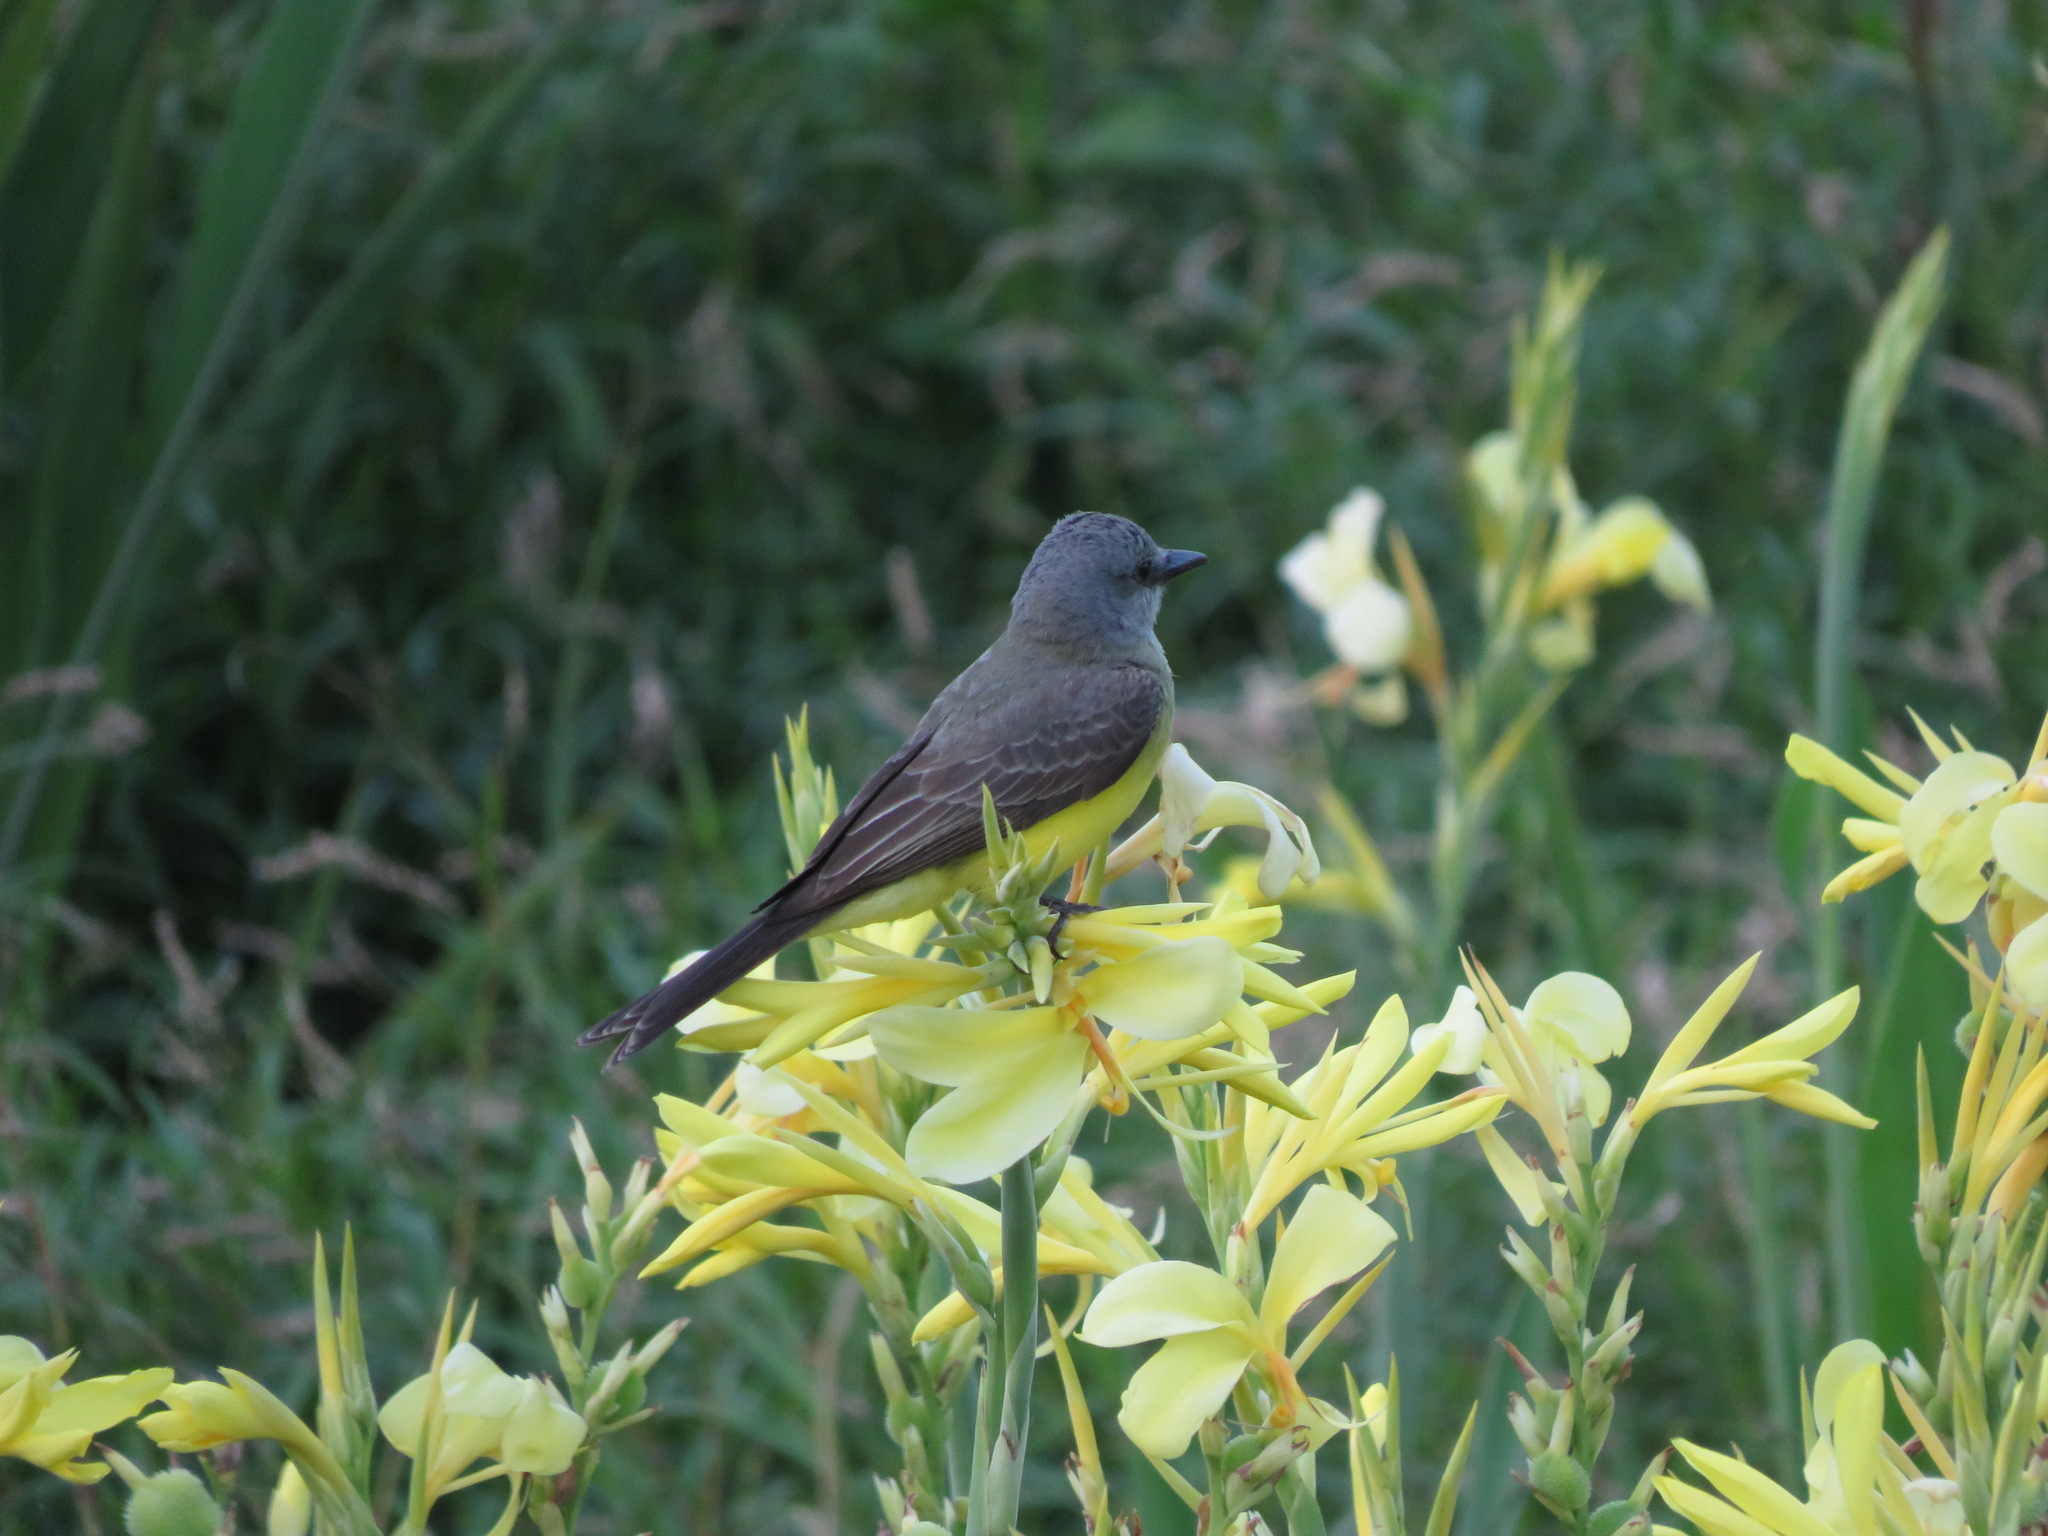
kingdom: Animalia
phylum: Chordata
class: Aves
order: Passeriformes
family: Tyrannidae
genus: Tyrannus
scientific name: Tyrannus melancholicus
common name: Tropical kingbird
